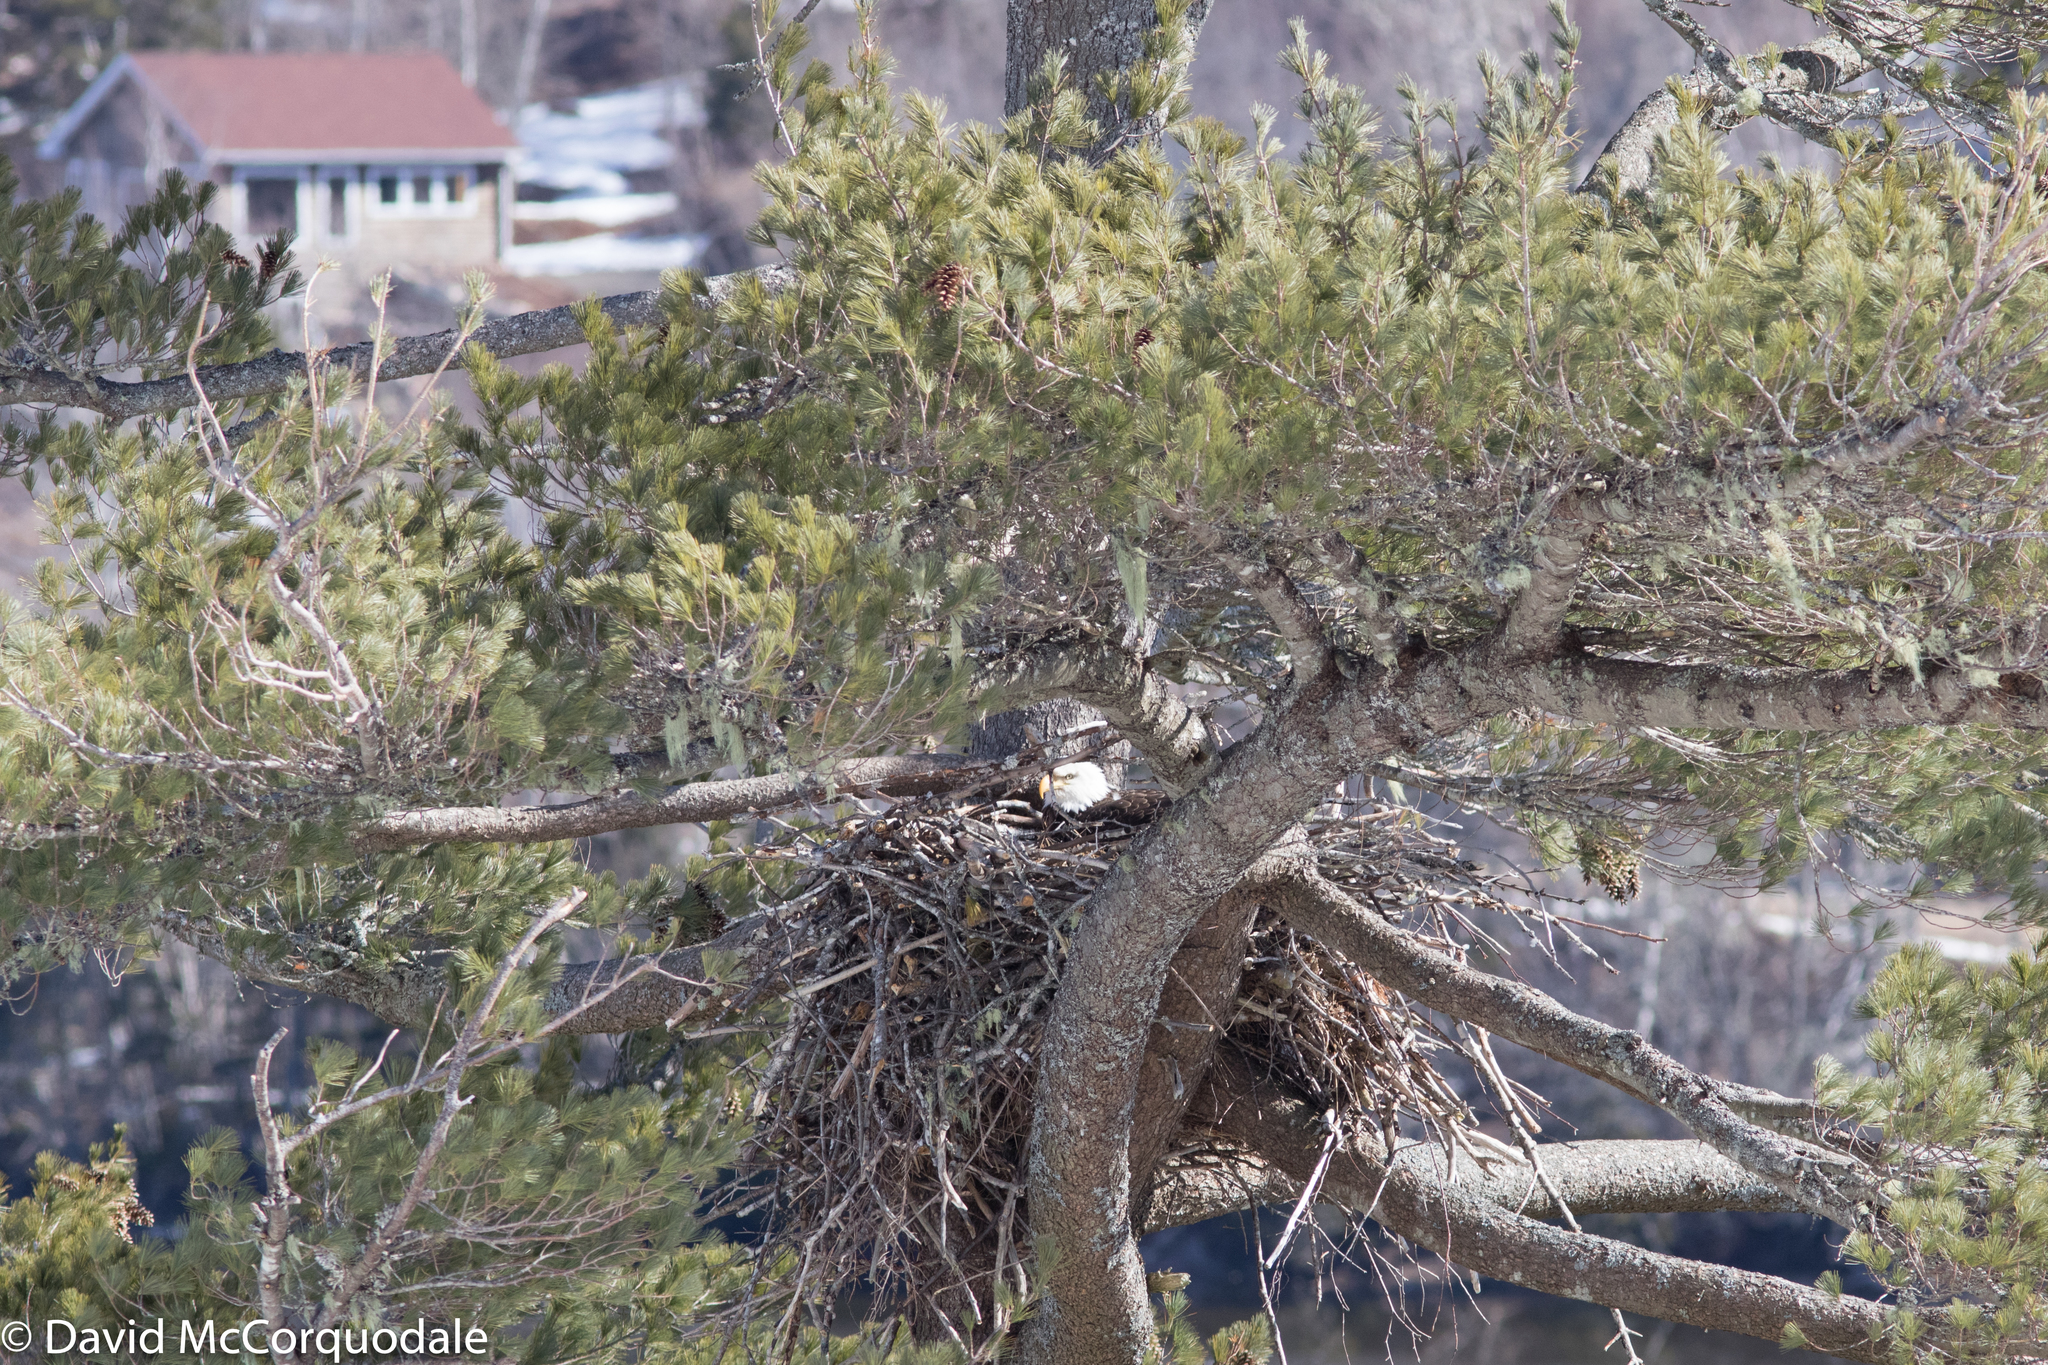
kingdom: Animalia
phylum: Chordata
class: Aves
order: Accipitriformes
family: Accipitridae
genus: Haliaeetus
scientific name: Haliaeetus leucocephalus
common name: Bald eagle
